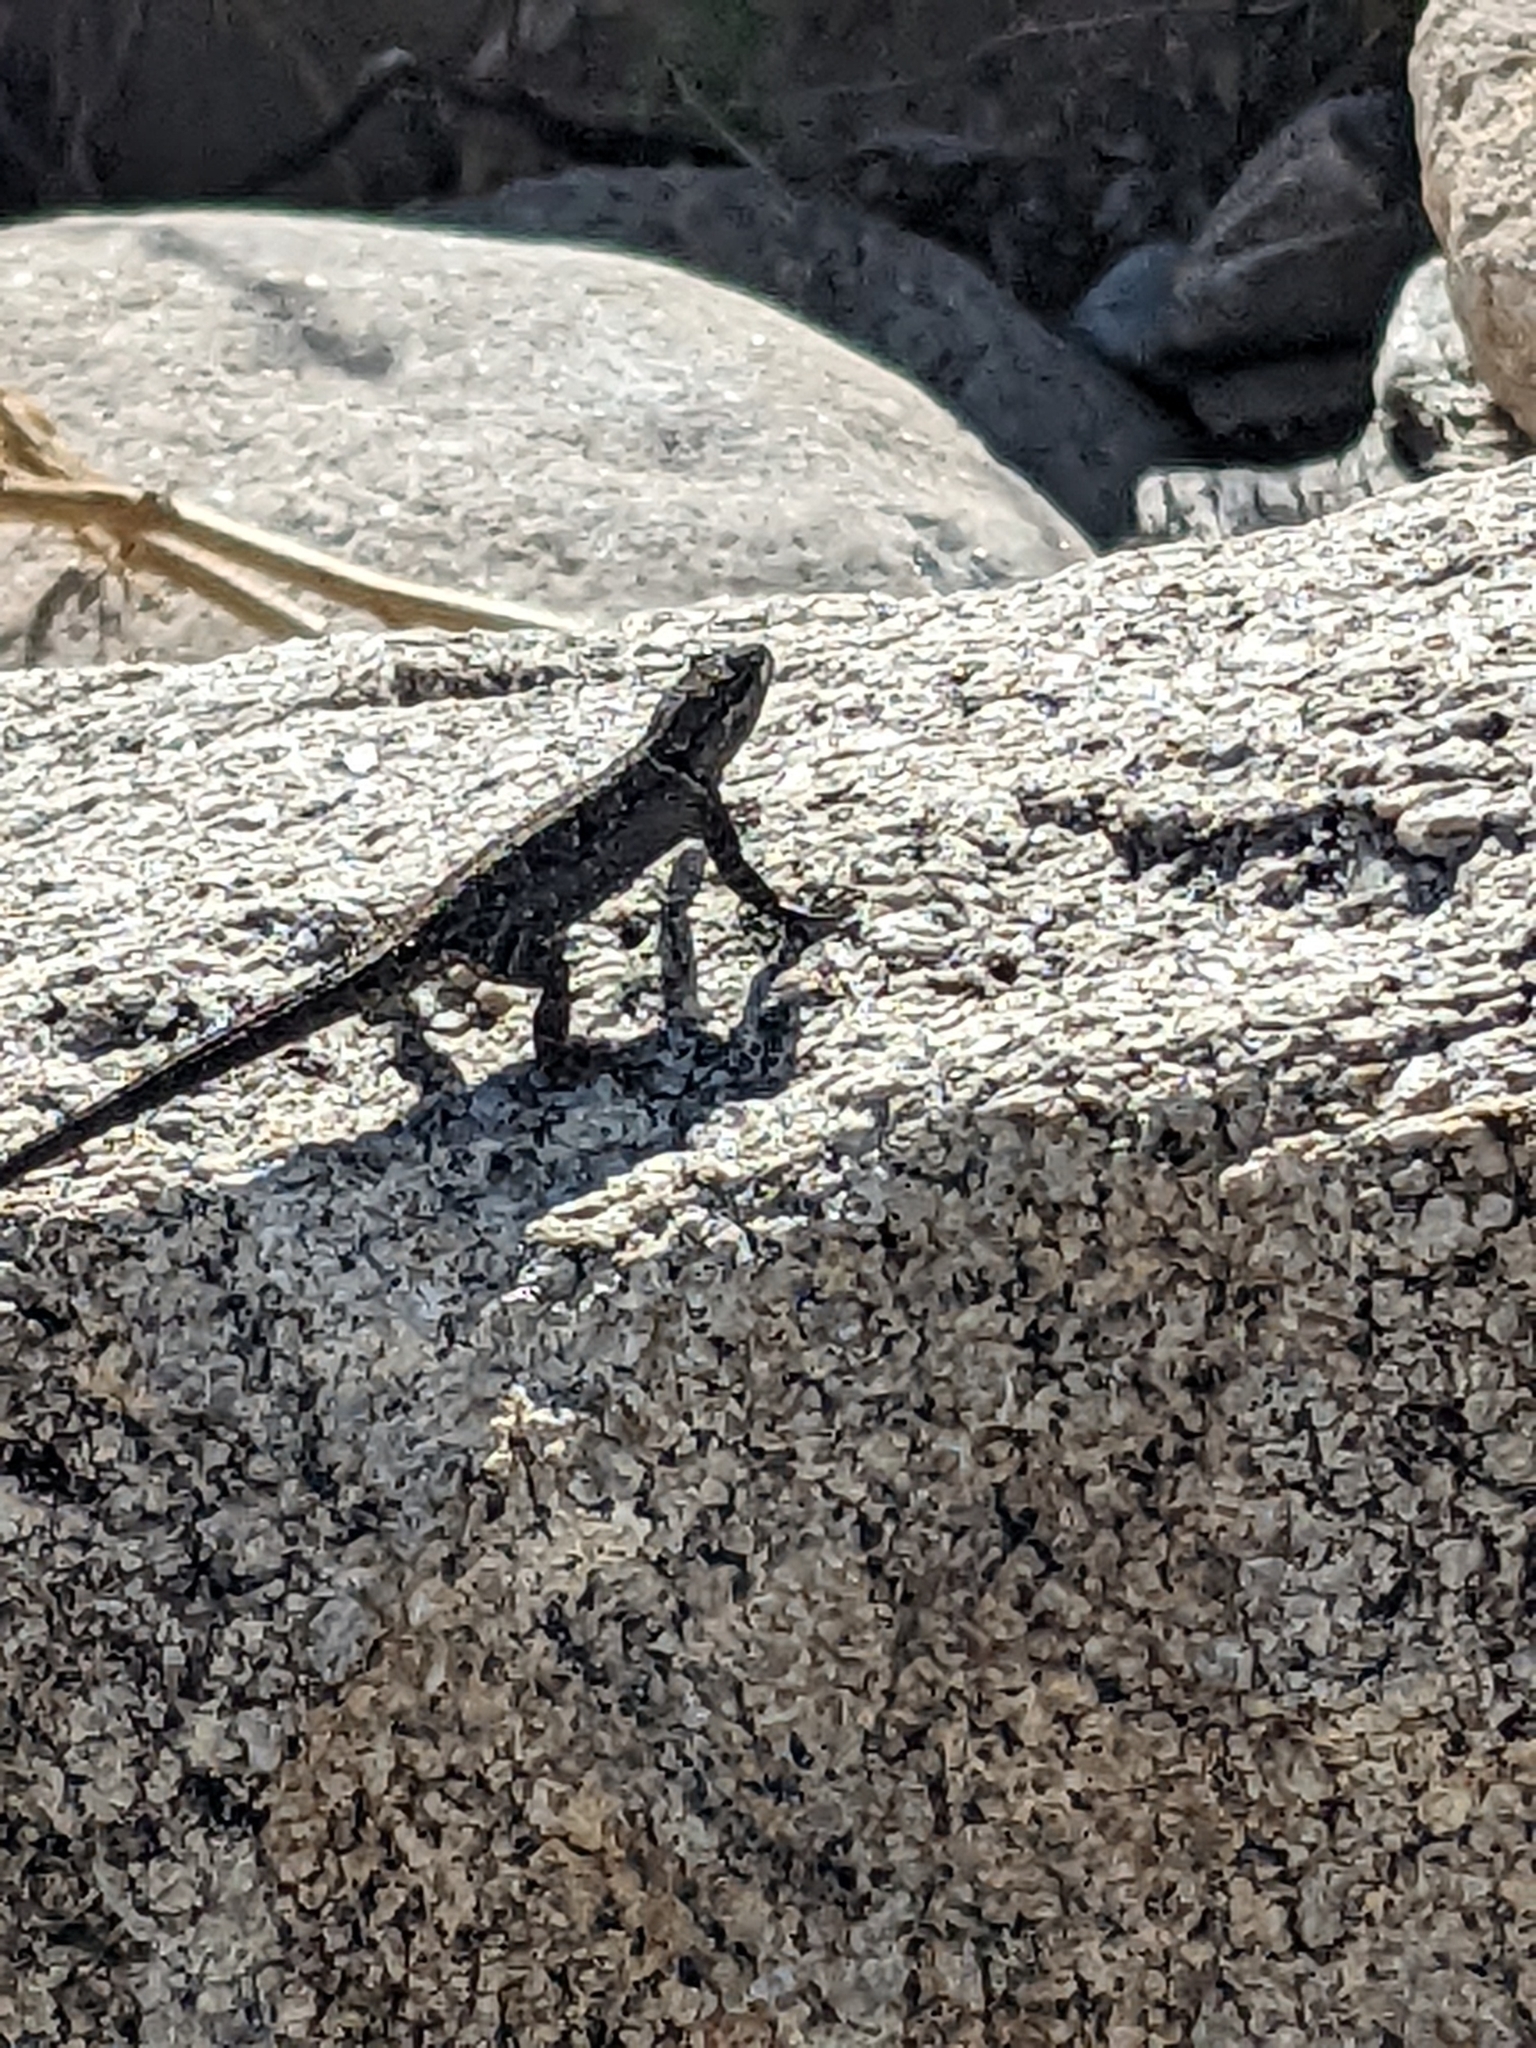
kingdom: Animalia
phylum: Chordata
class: Squamata
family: Phrynosomatidae
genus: Urosaurus
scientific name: Urosaurus ornatus
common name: Ornate tree lizard
